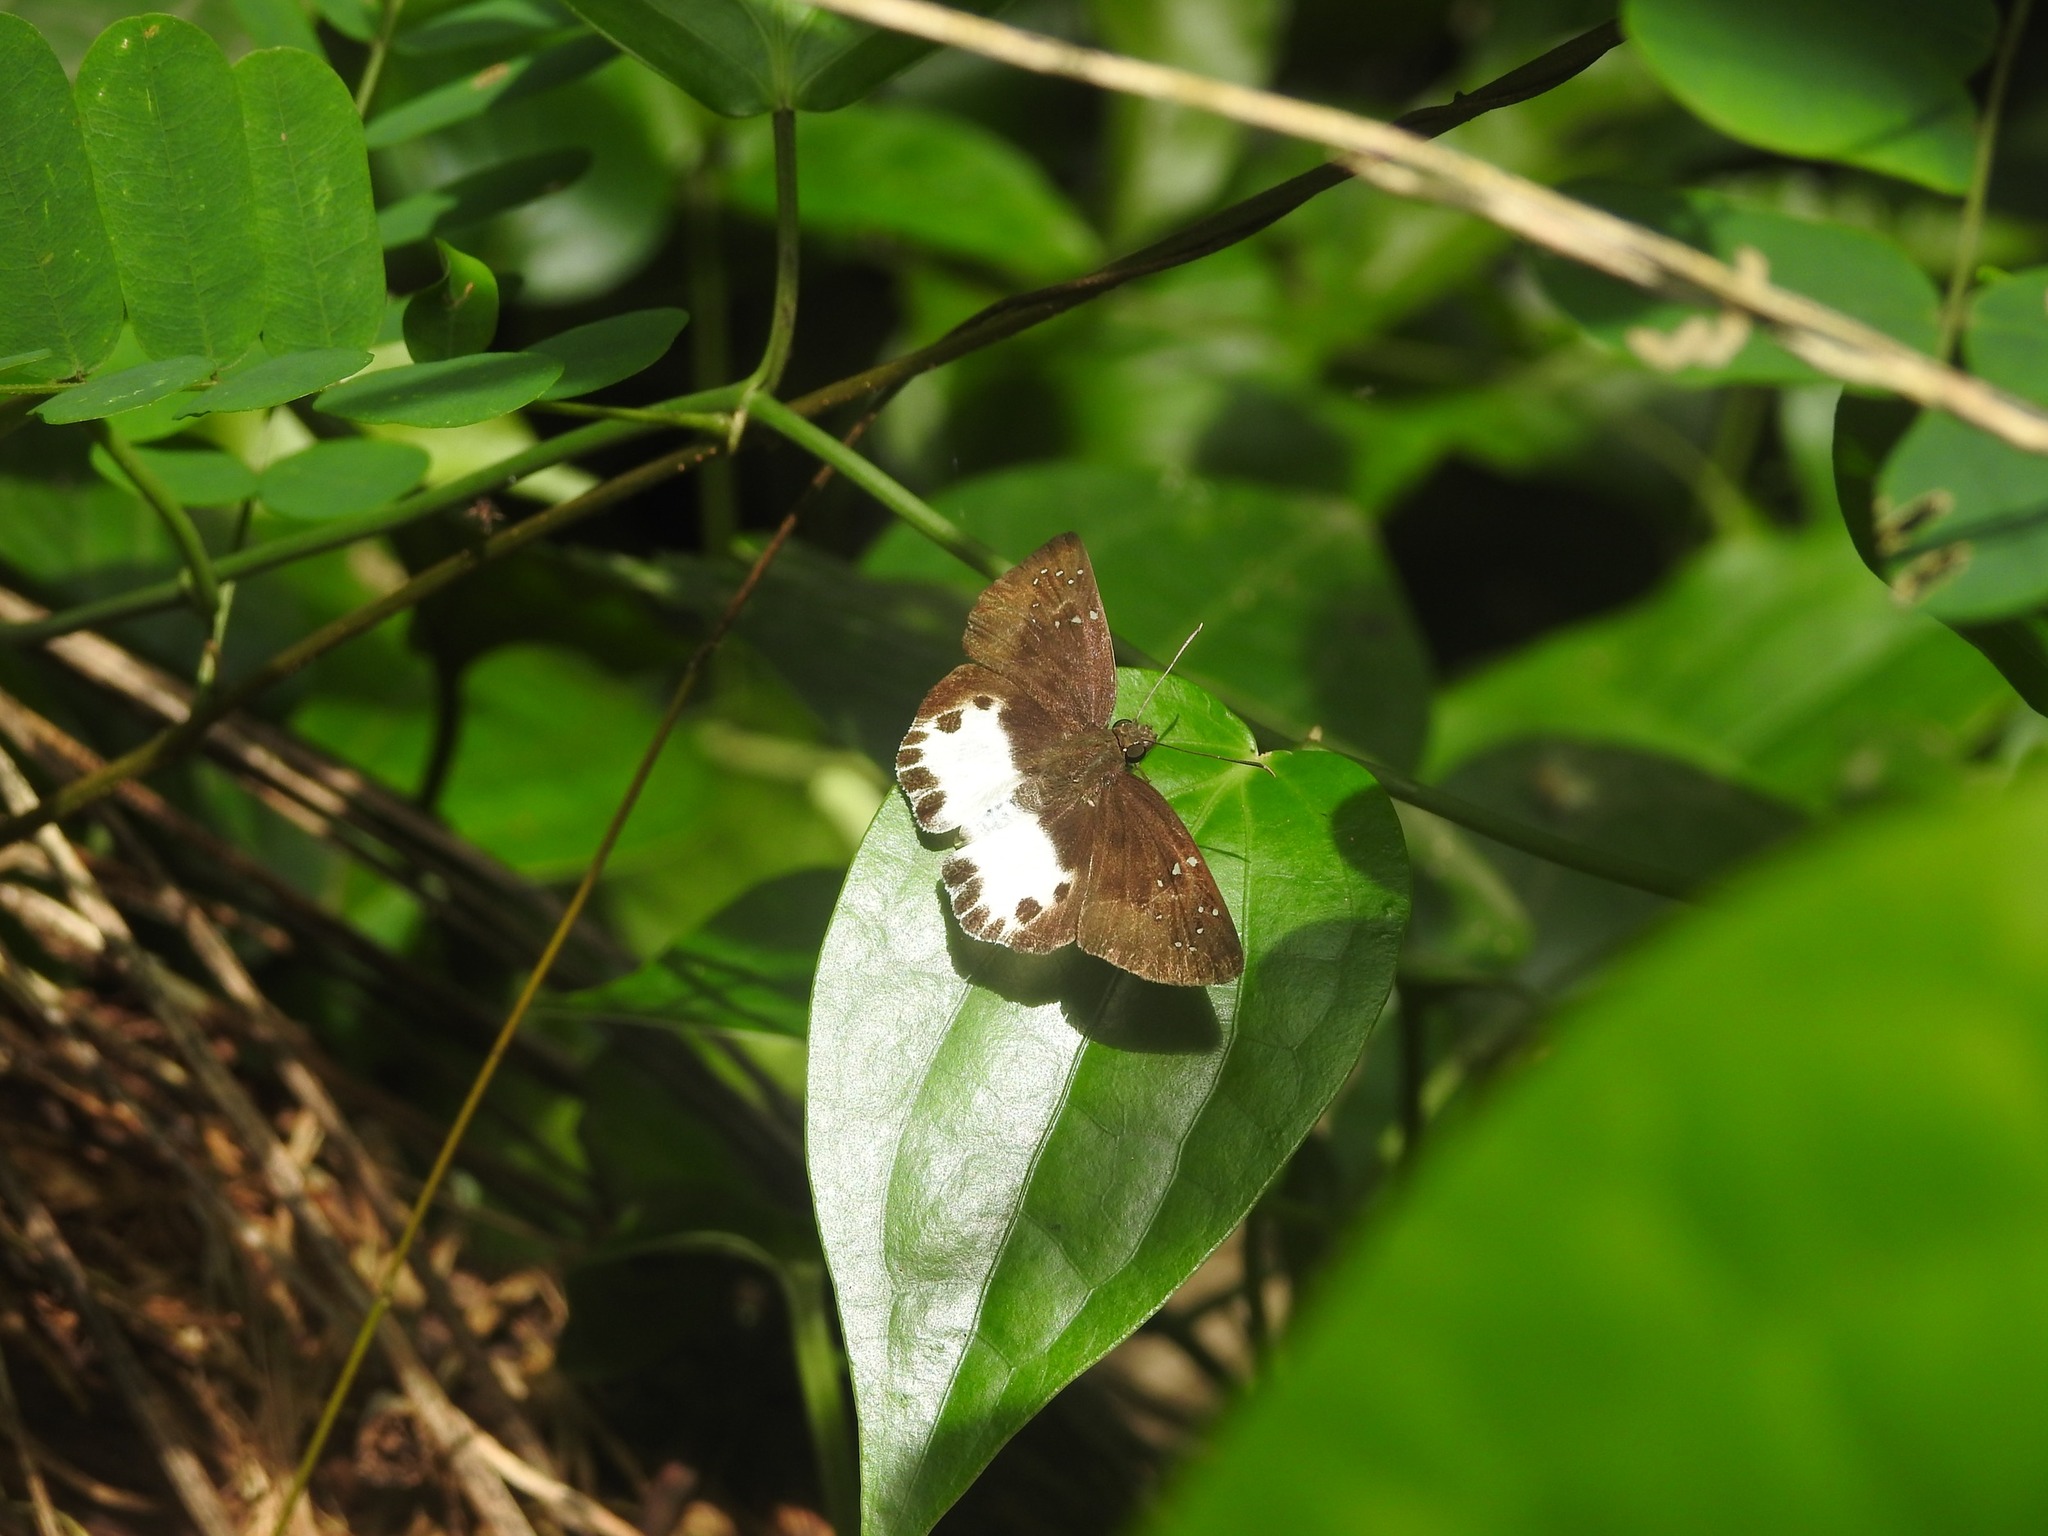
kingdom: Animalia
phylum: Arthropoda
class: Insecta
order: Lepidoptera
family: Hesperiidae
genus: Tagiades
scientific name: Tagiades litigiosa
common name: Water snow flat
